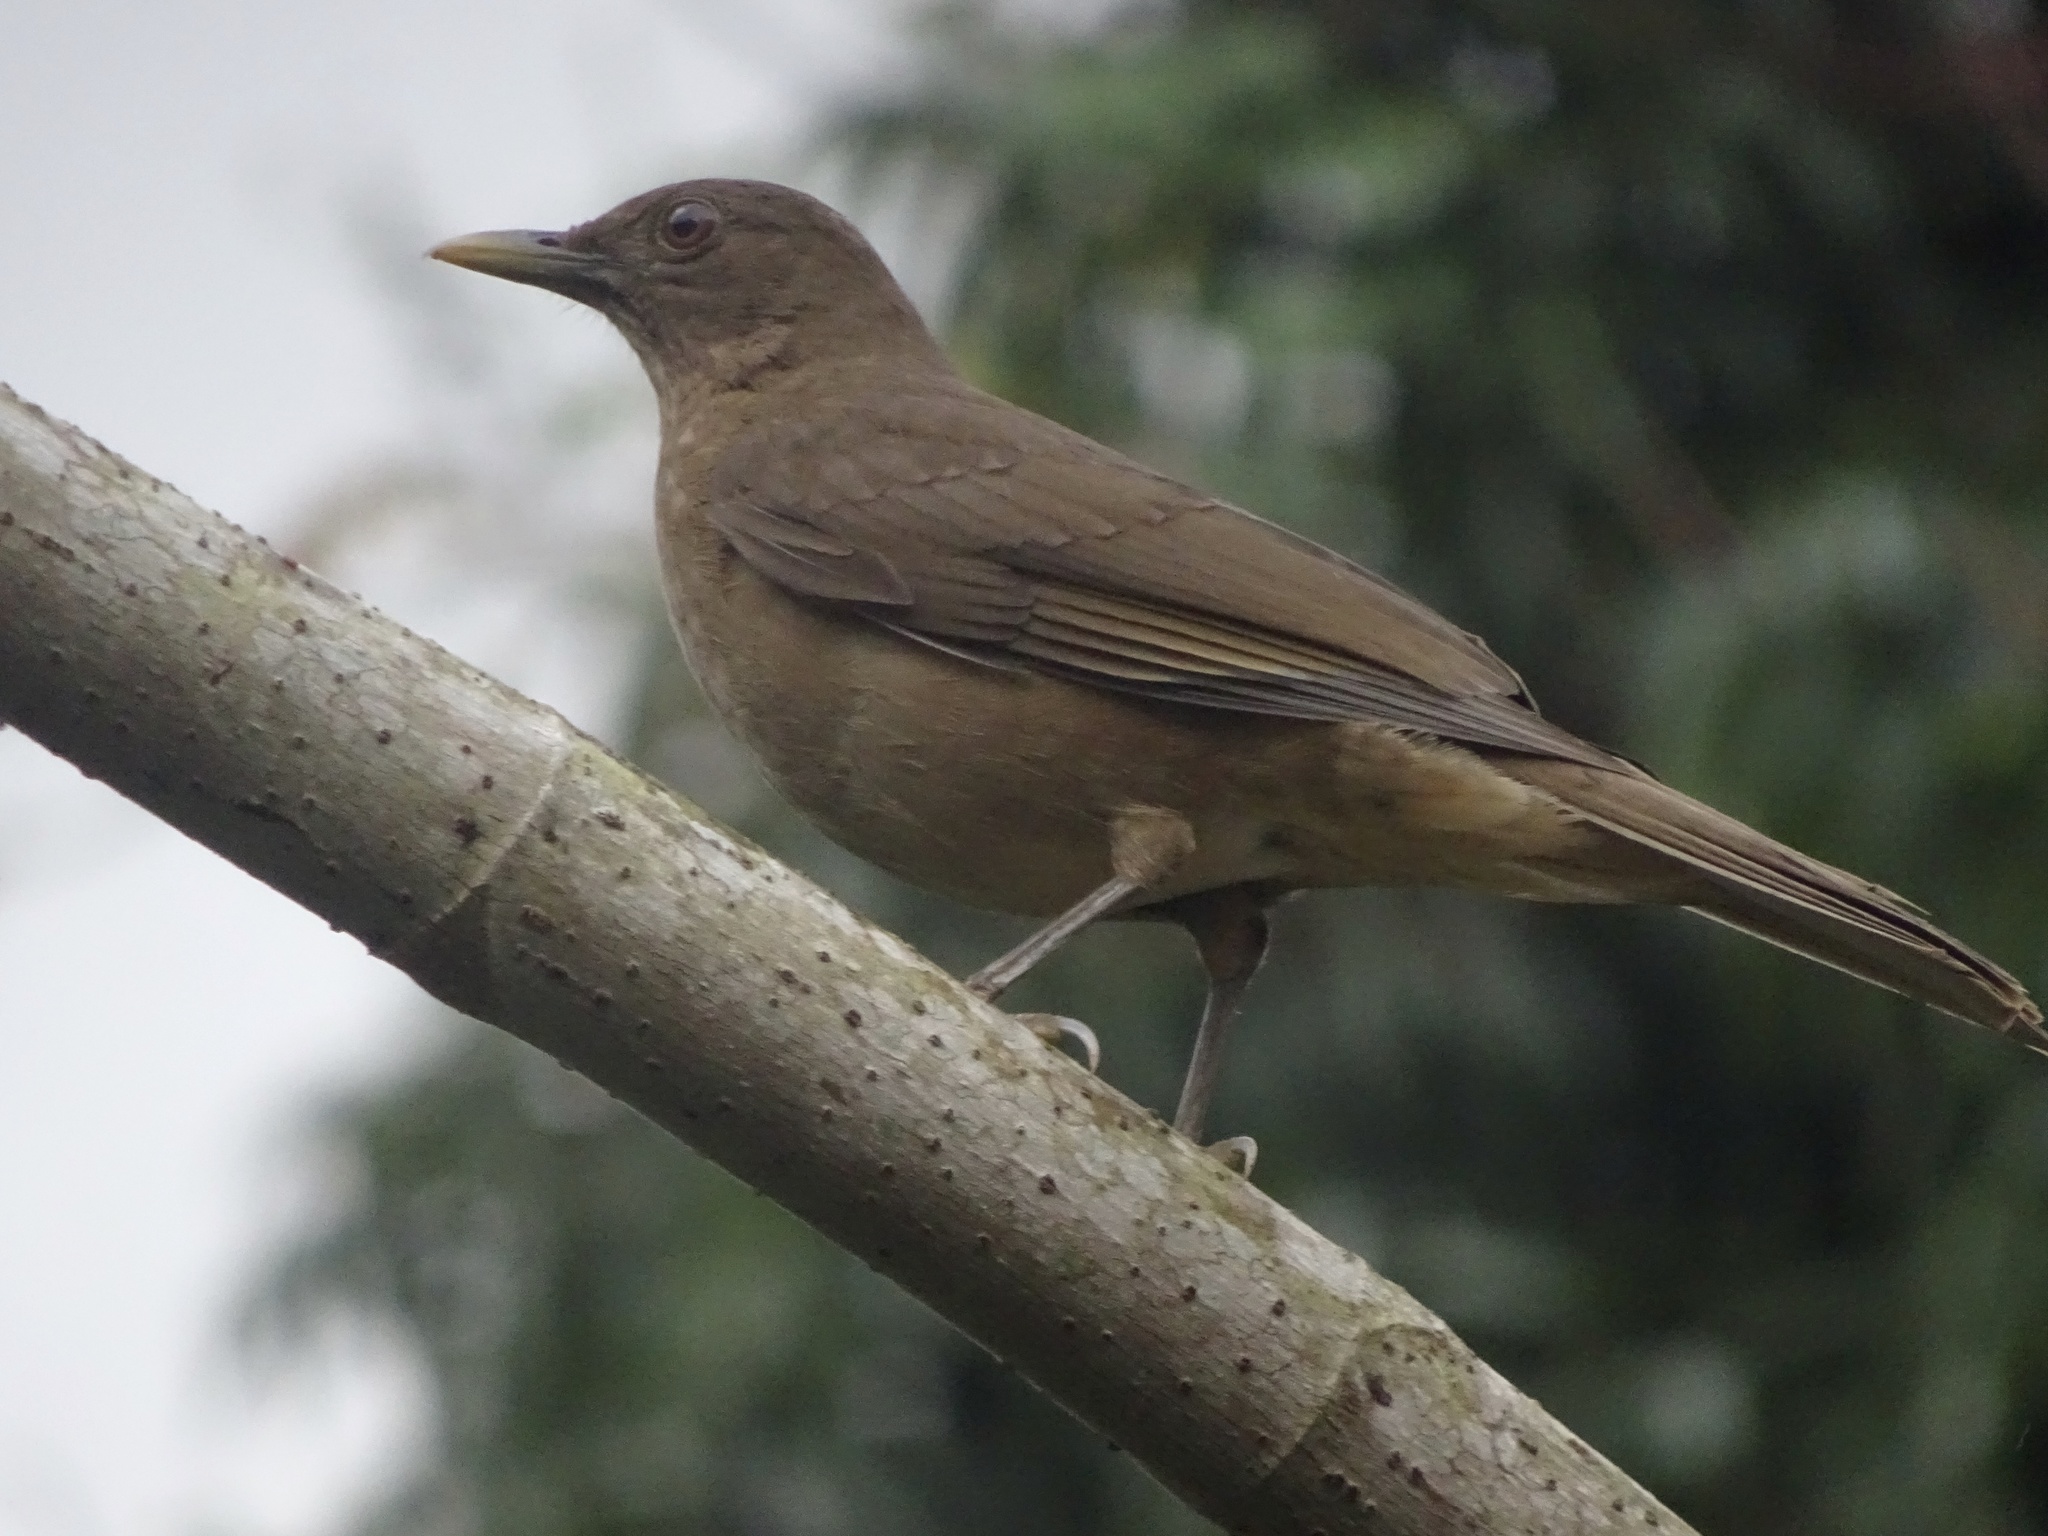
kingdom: Animalia
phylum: Chordata
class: Aves
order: Passeriformes
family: Turdidae
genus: Turdus
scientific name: Turdus grayi
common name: Clay-colored thrush
